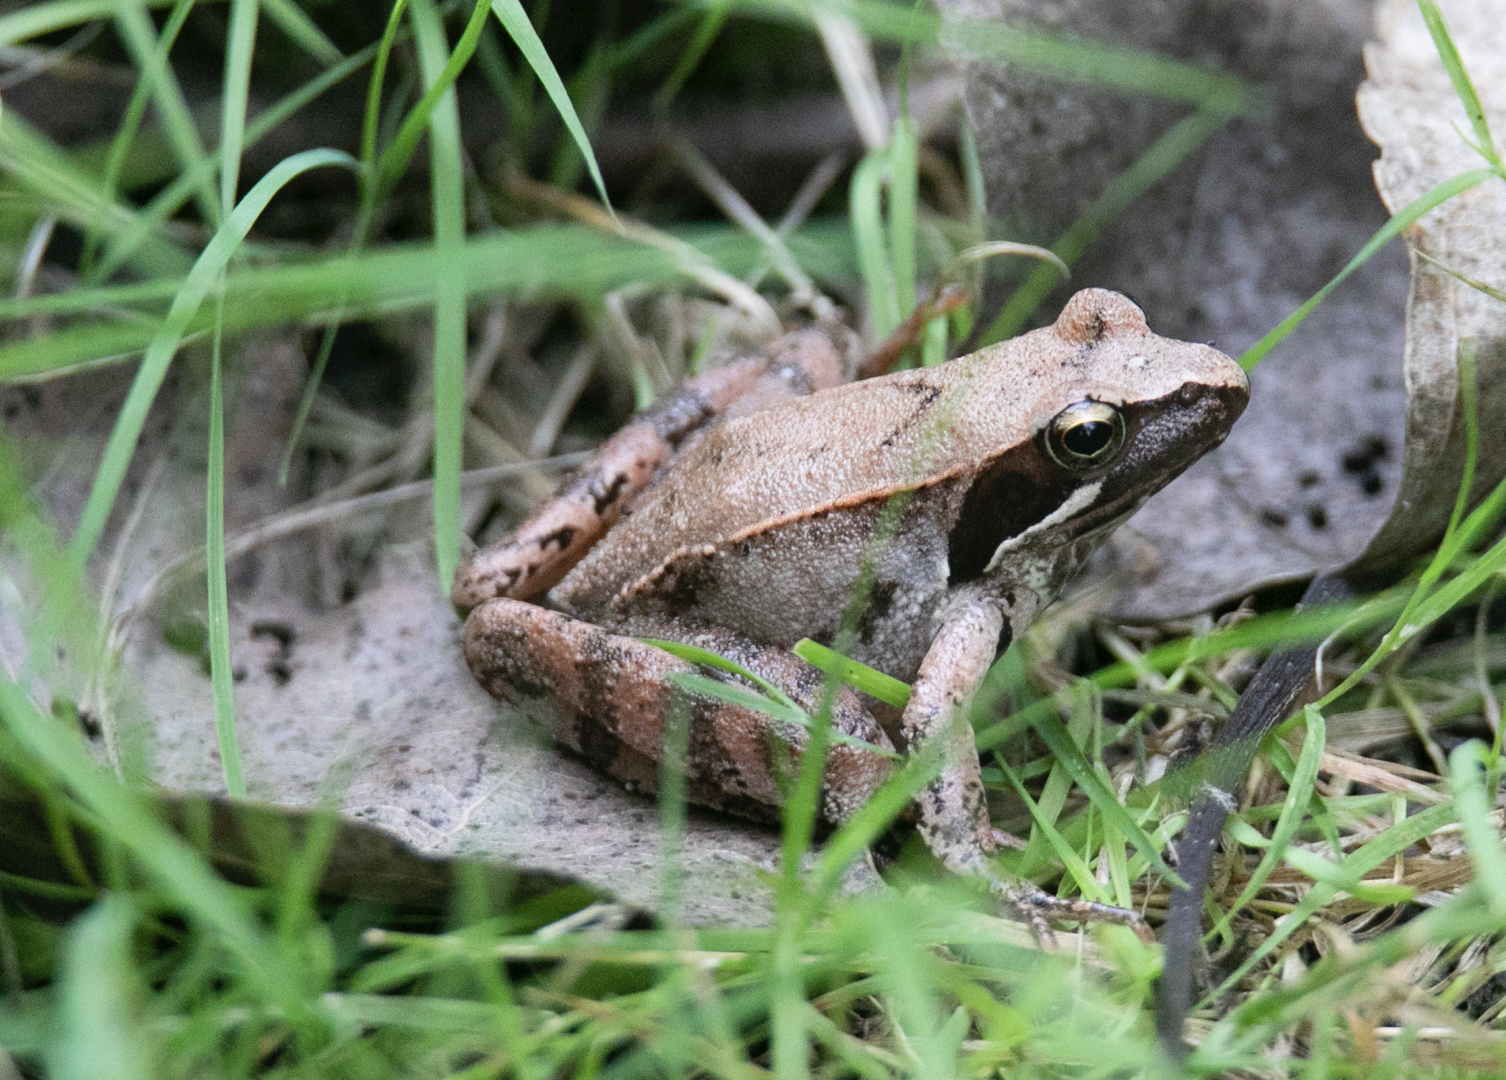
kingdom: Animalia
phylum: Chordata
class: Amphibia
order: Anura
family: Ranidae
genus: Rana
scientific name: Rana latastei
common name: Italian agile frog
